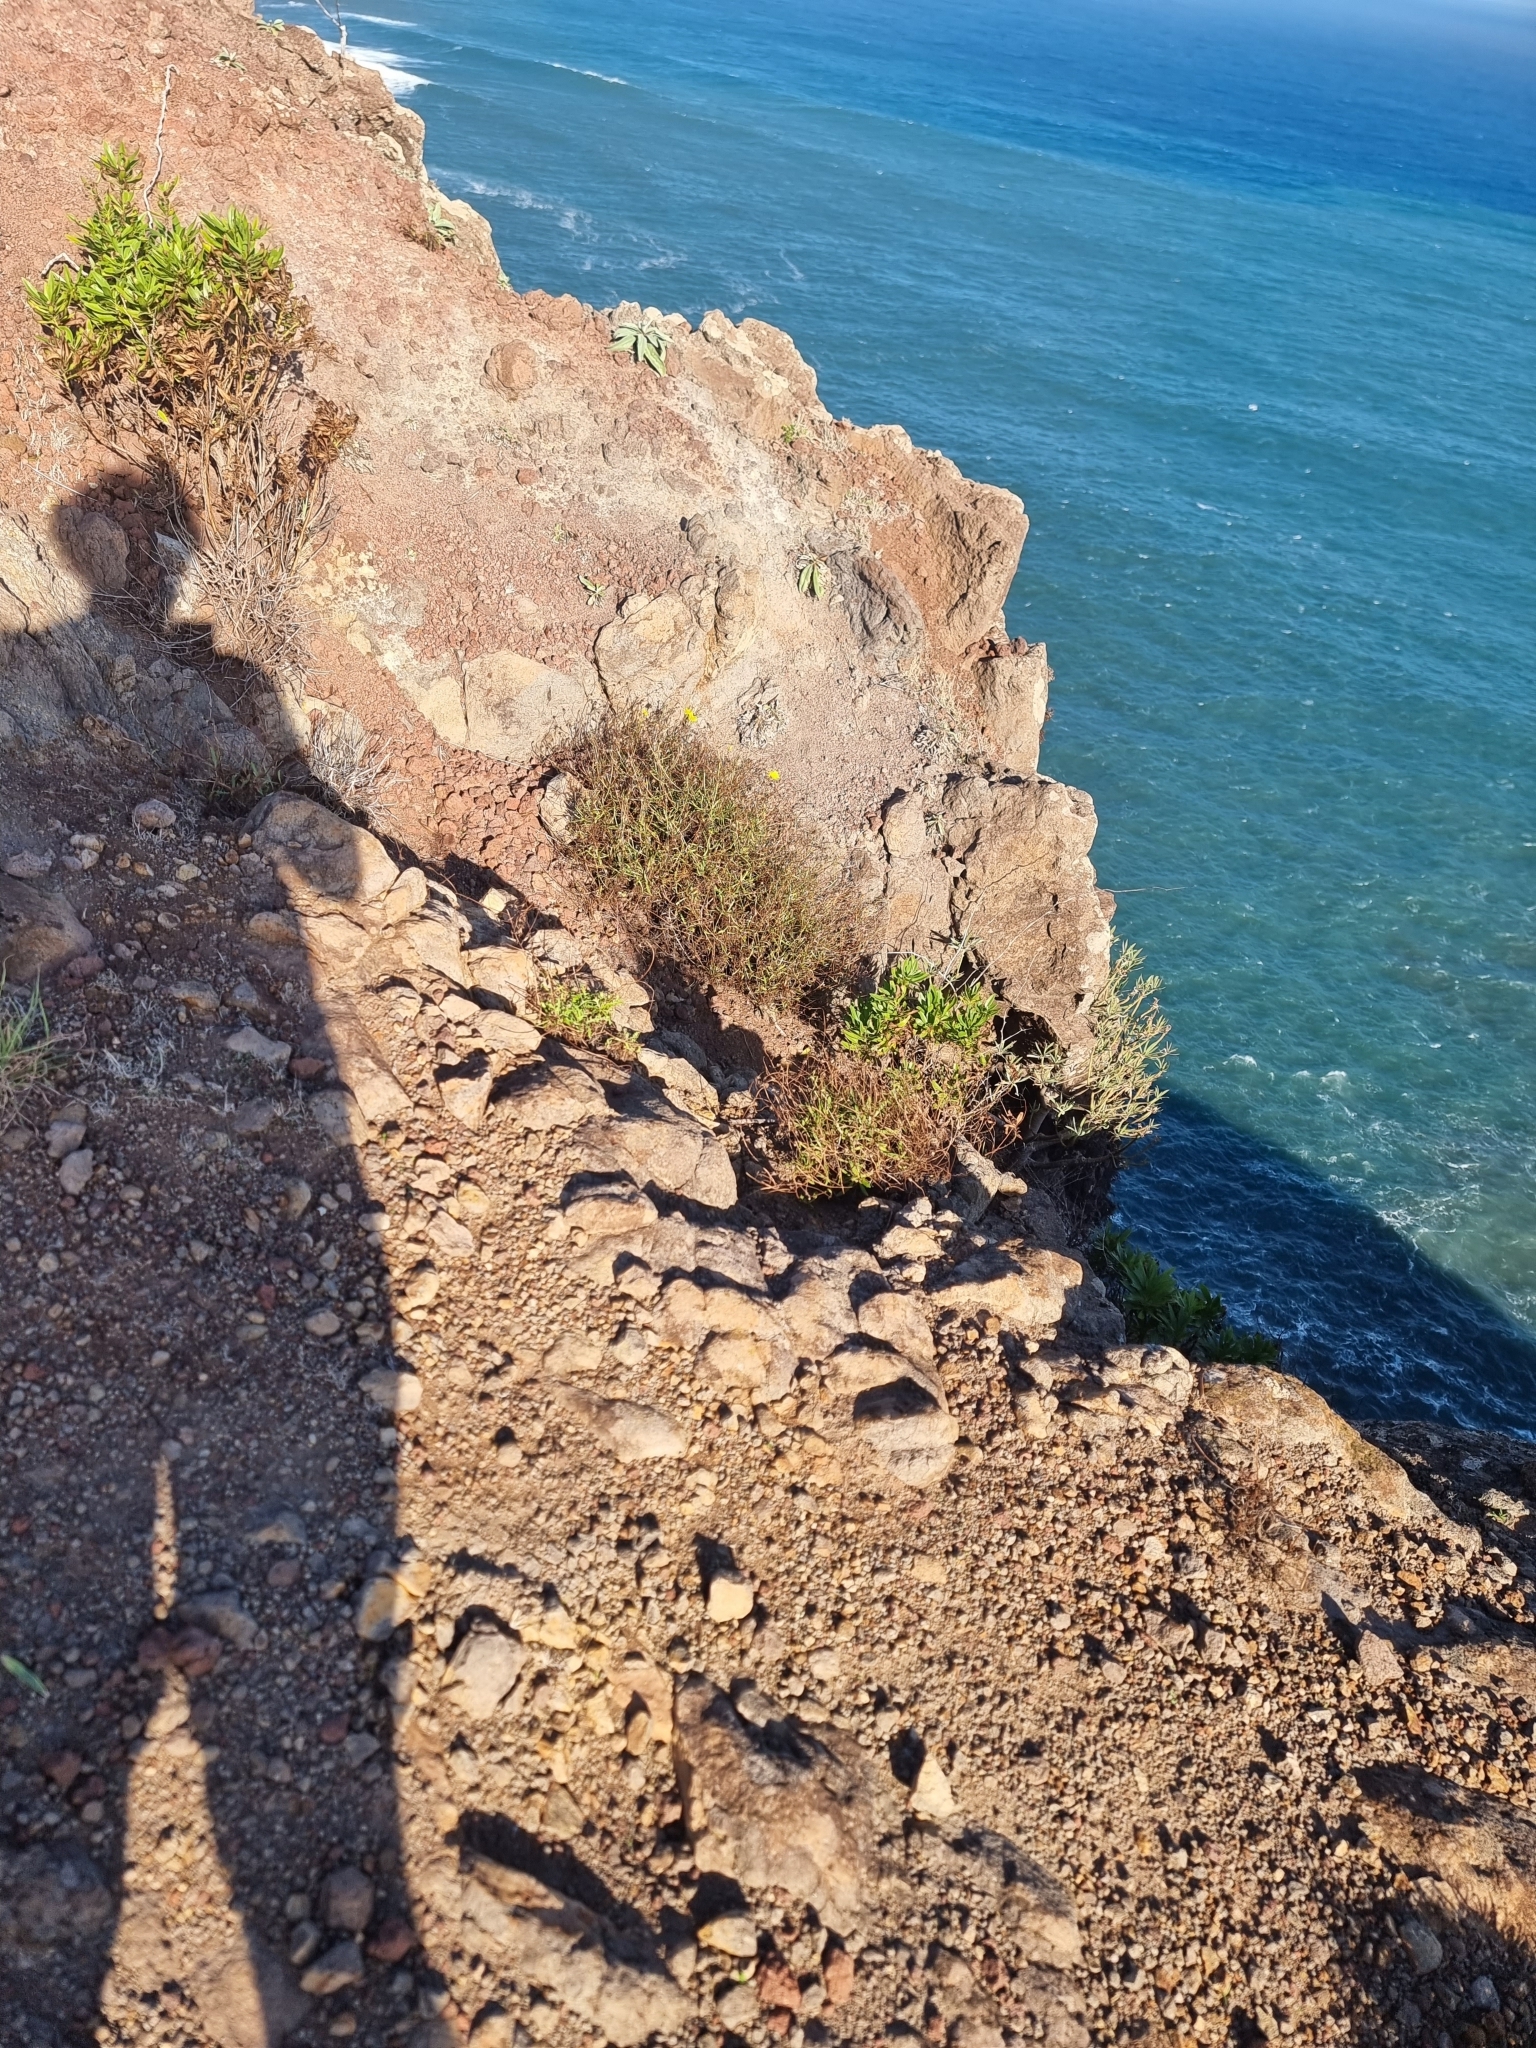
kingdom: Plantae
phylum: Tracheophyta
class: Magnoliopsida
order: Asterales
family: Asteraceae
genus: Tolpis
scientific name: Tolpis succulenta
